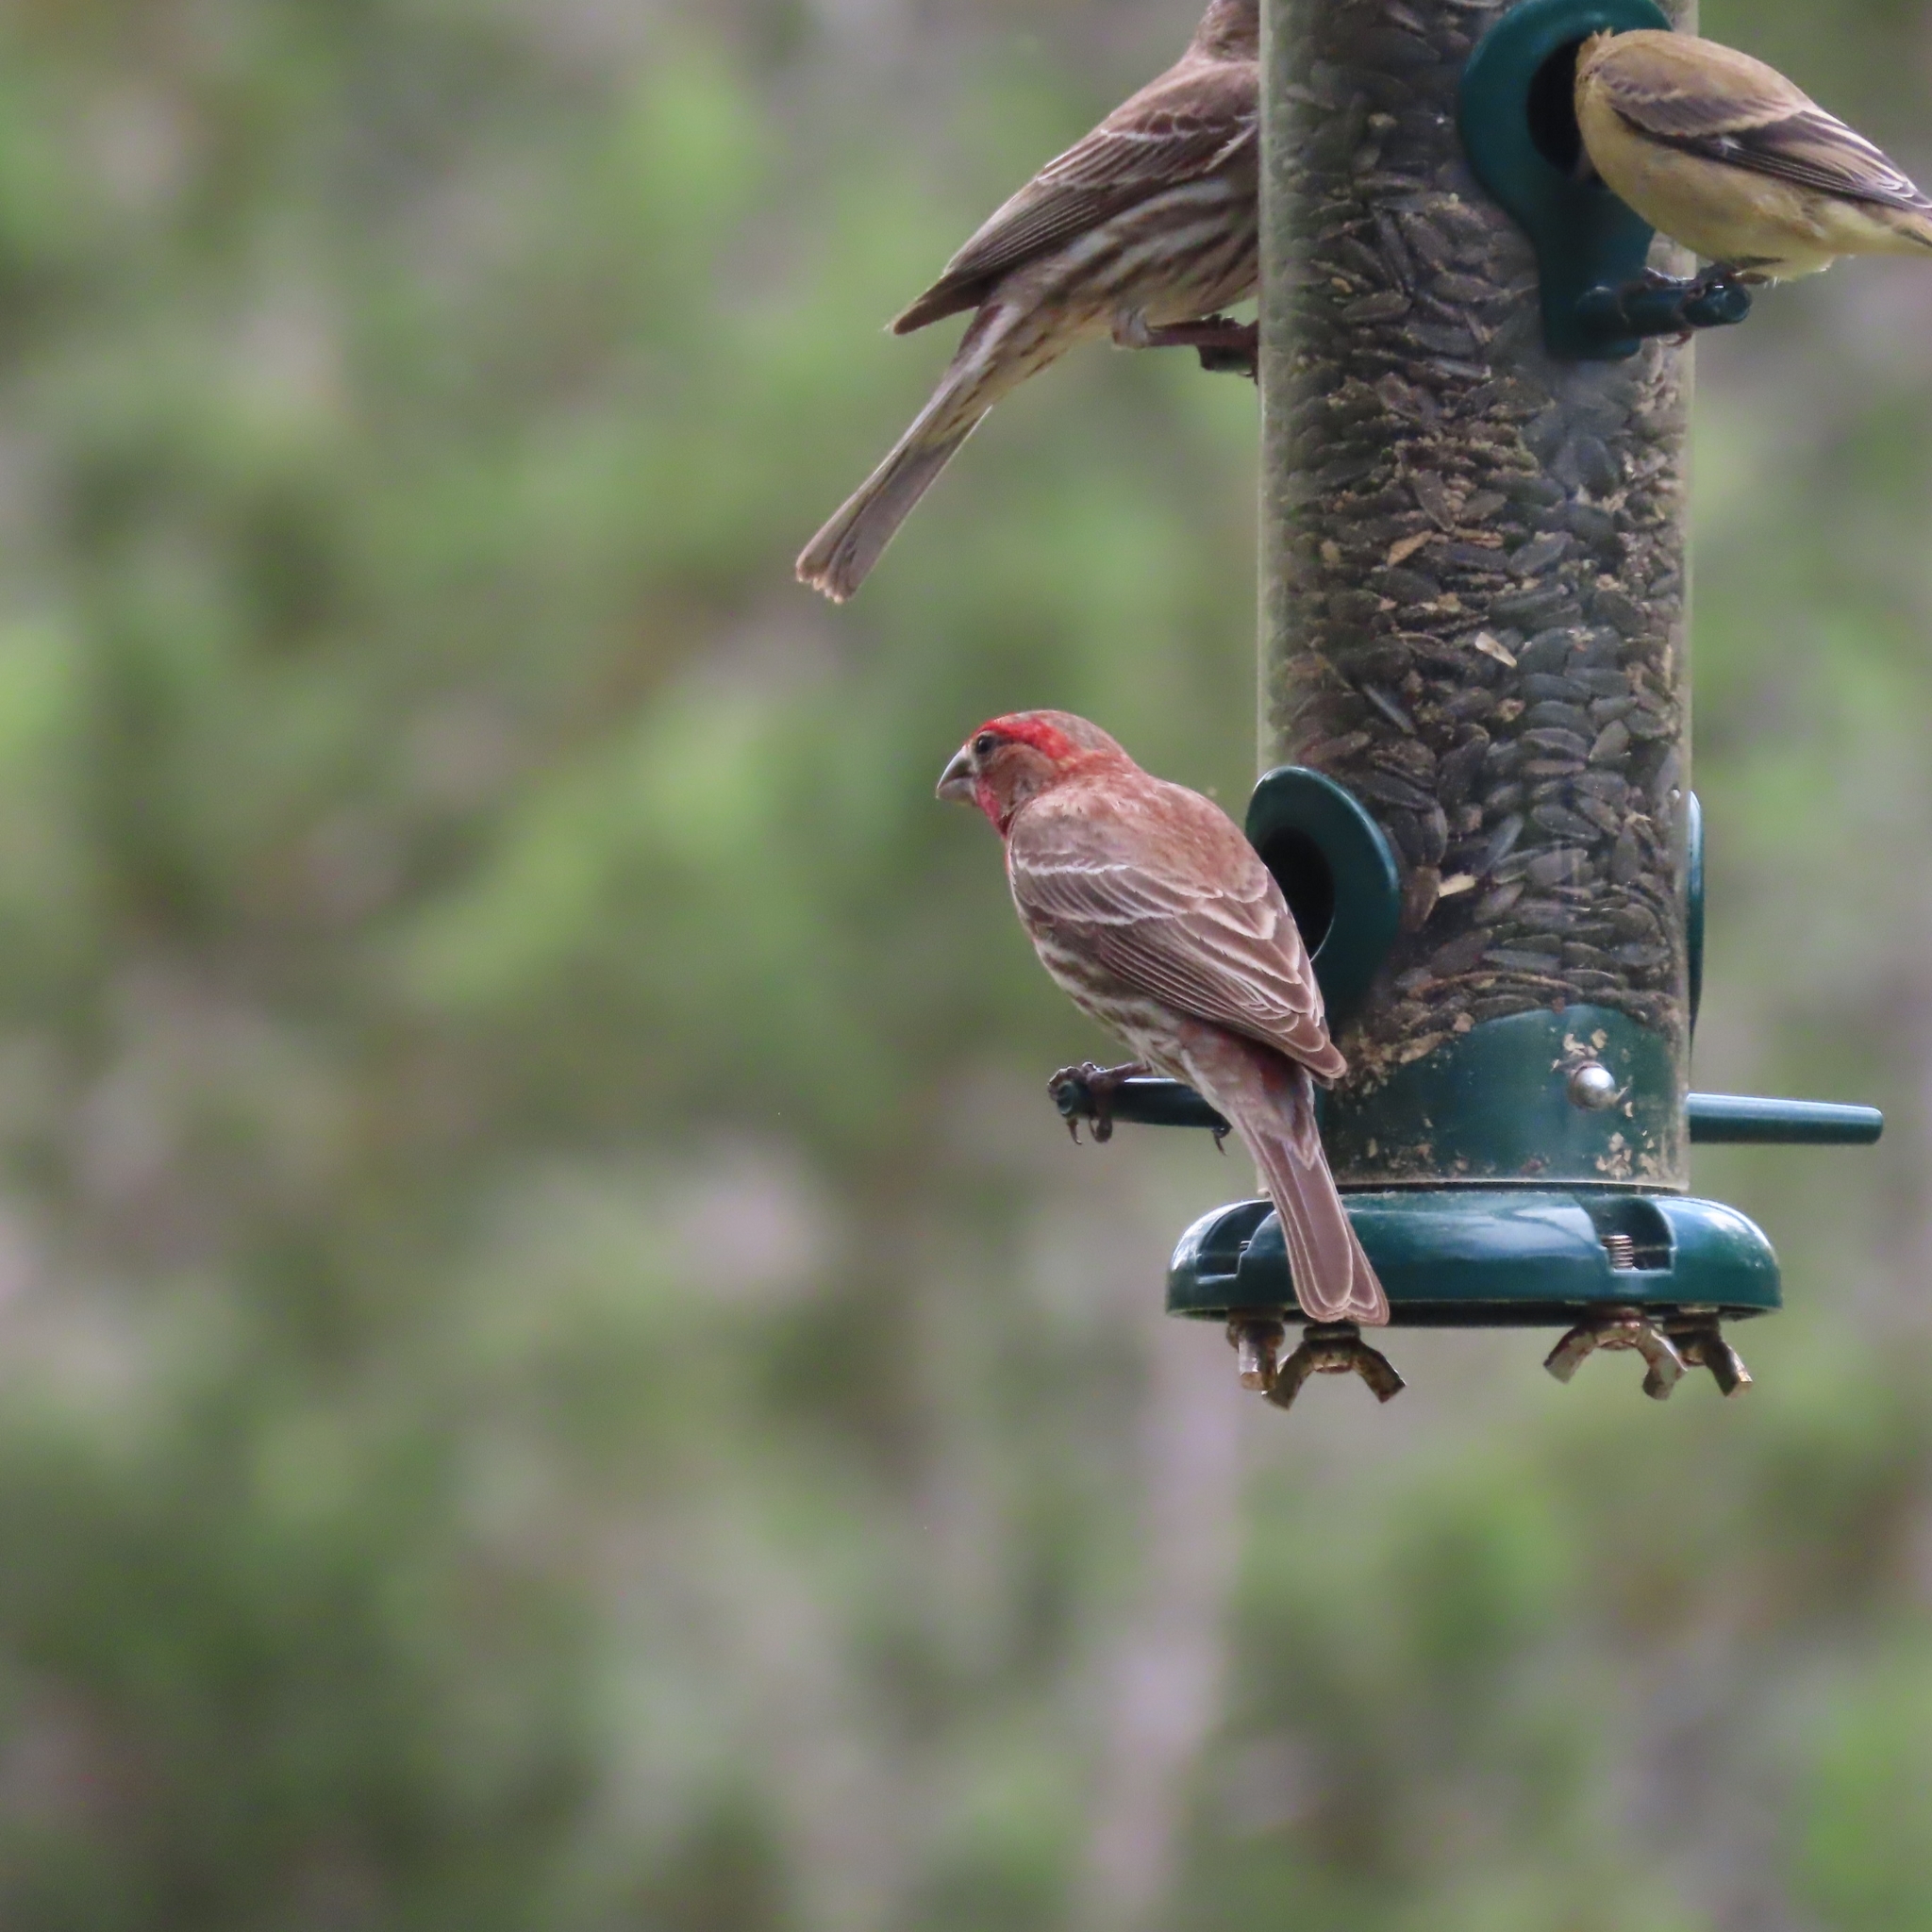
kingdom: Animalia
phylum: Chordata
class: Aves
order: Passeriformes
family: Fringillidae
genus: Haemorhous
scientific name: Haemorhous mexicanus
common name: House finch
